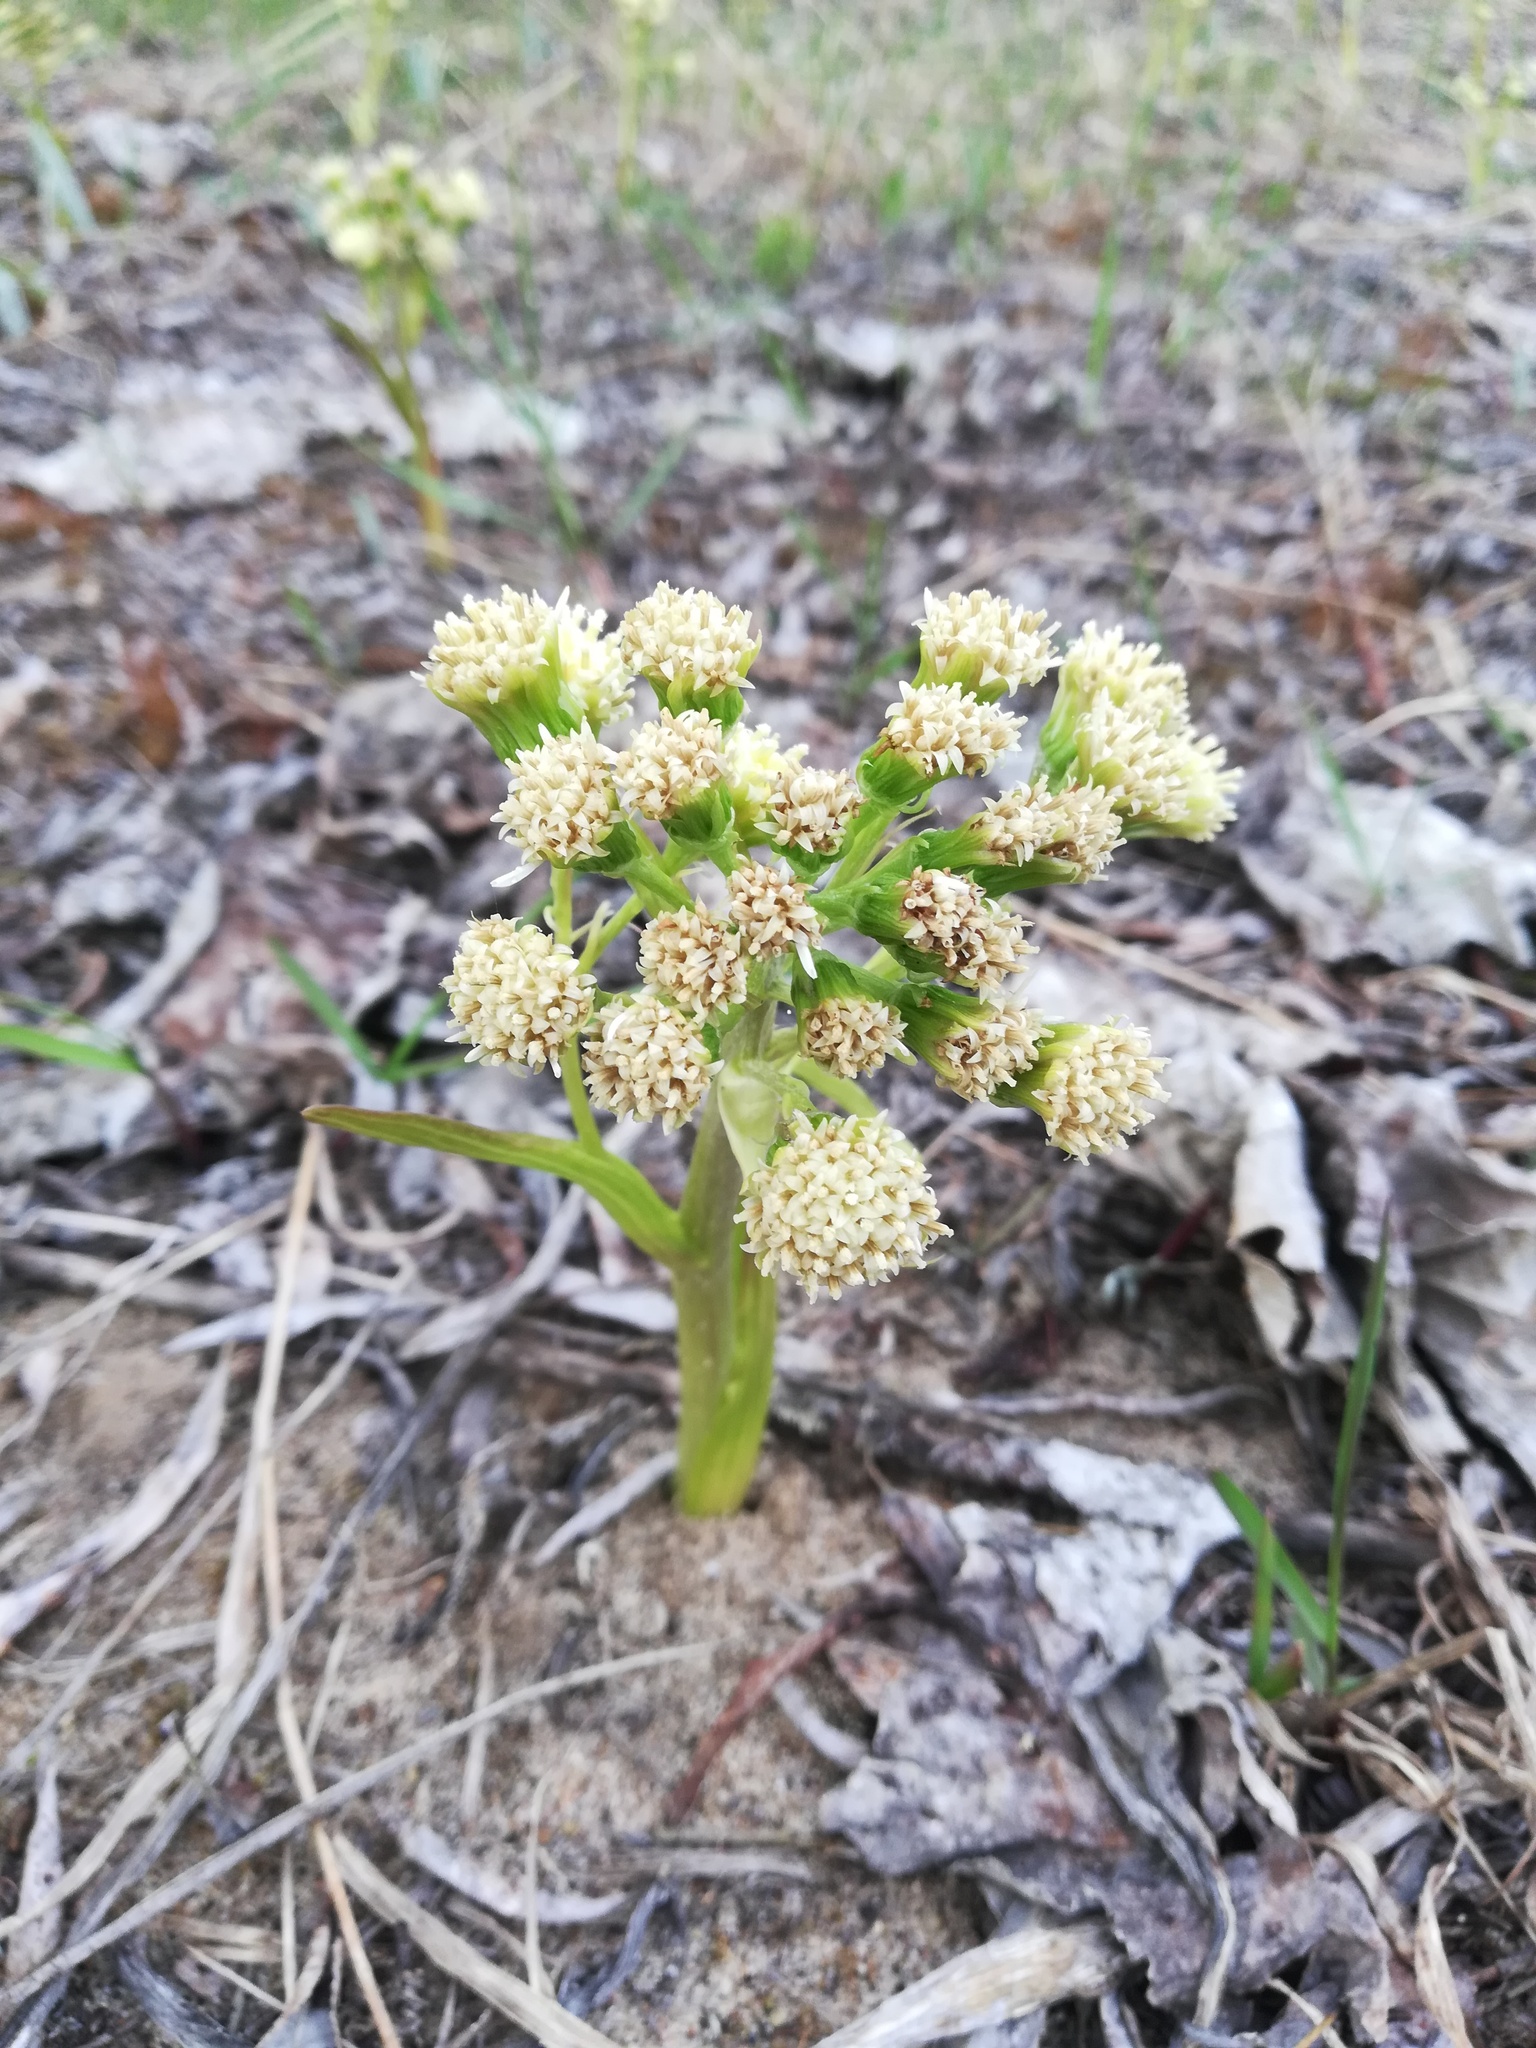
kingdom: Plantae
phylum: Tracheophyta
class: Magnoliopsida
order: Asterales
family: Asteraceae
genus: Petasites
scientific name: Petasites spurius
